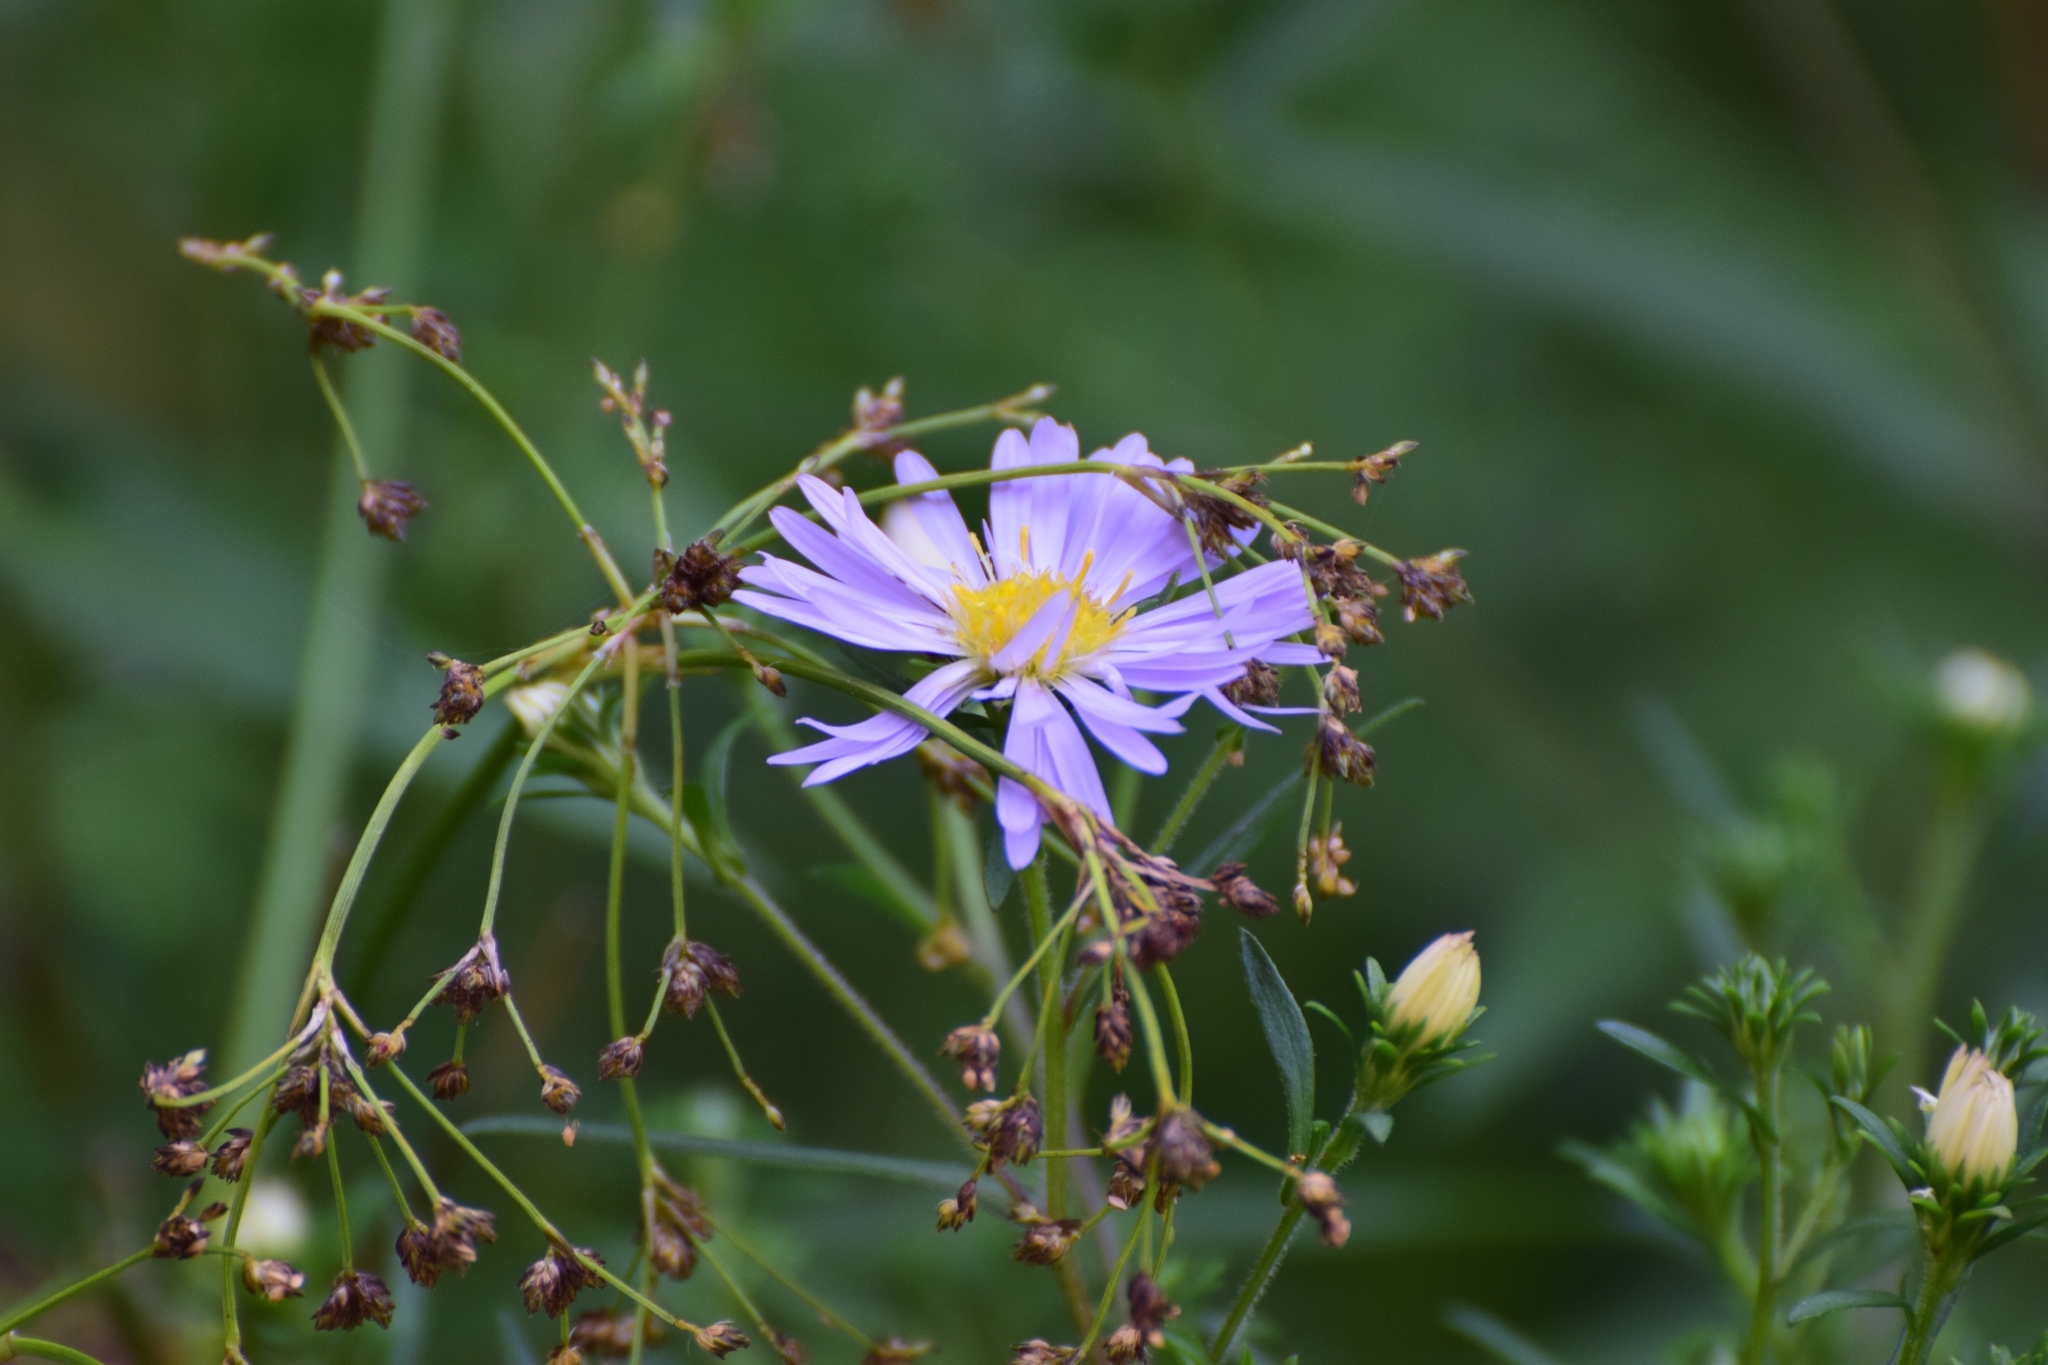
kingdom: Plantae
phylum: Tracheophyta
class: Magnoliopsida
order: Asterales
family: Asteraceae
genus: Symphyotrichum
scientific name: Symphyotrichum novi-belgii
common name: Michaelmas daisy
